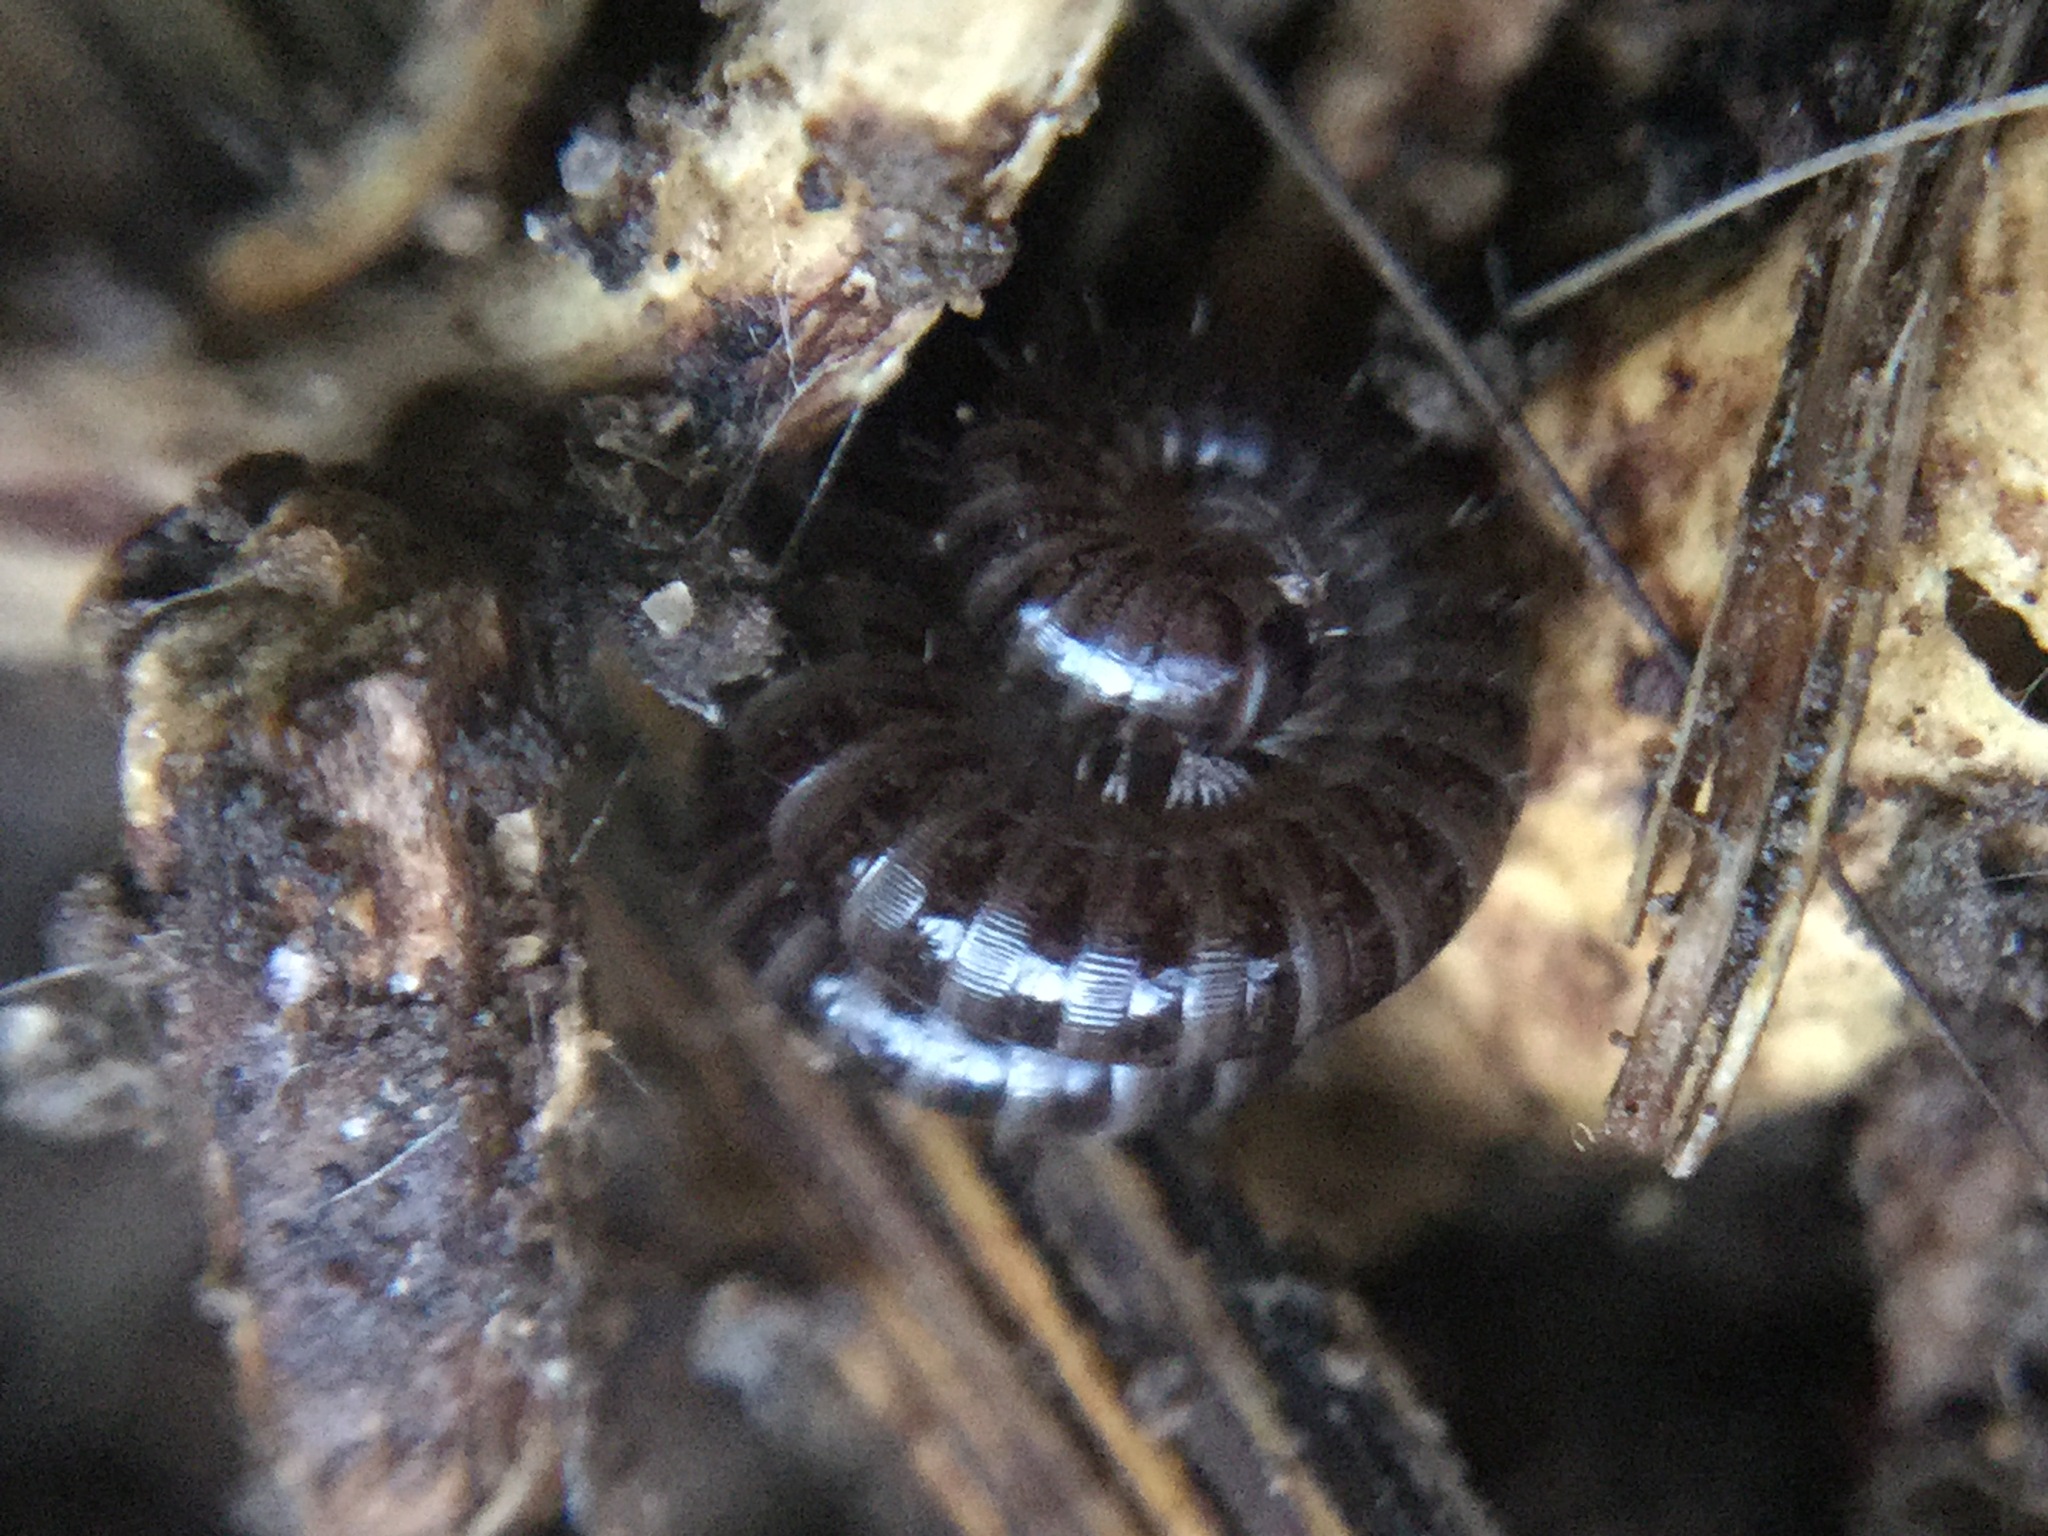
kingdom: Animalia
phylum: Arthropoda
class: Diplopoda
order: Julida
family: Julidae
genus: Ophyiulus
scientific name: Ophyiulus pilosus
